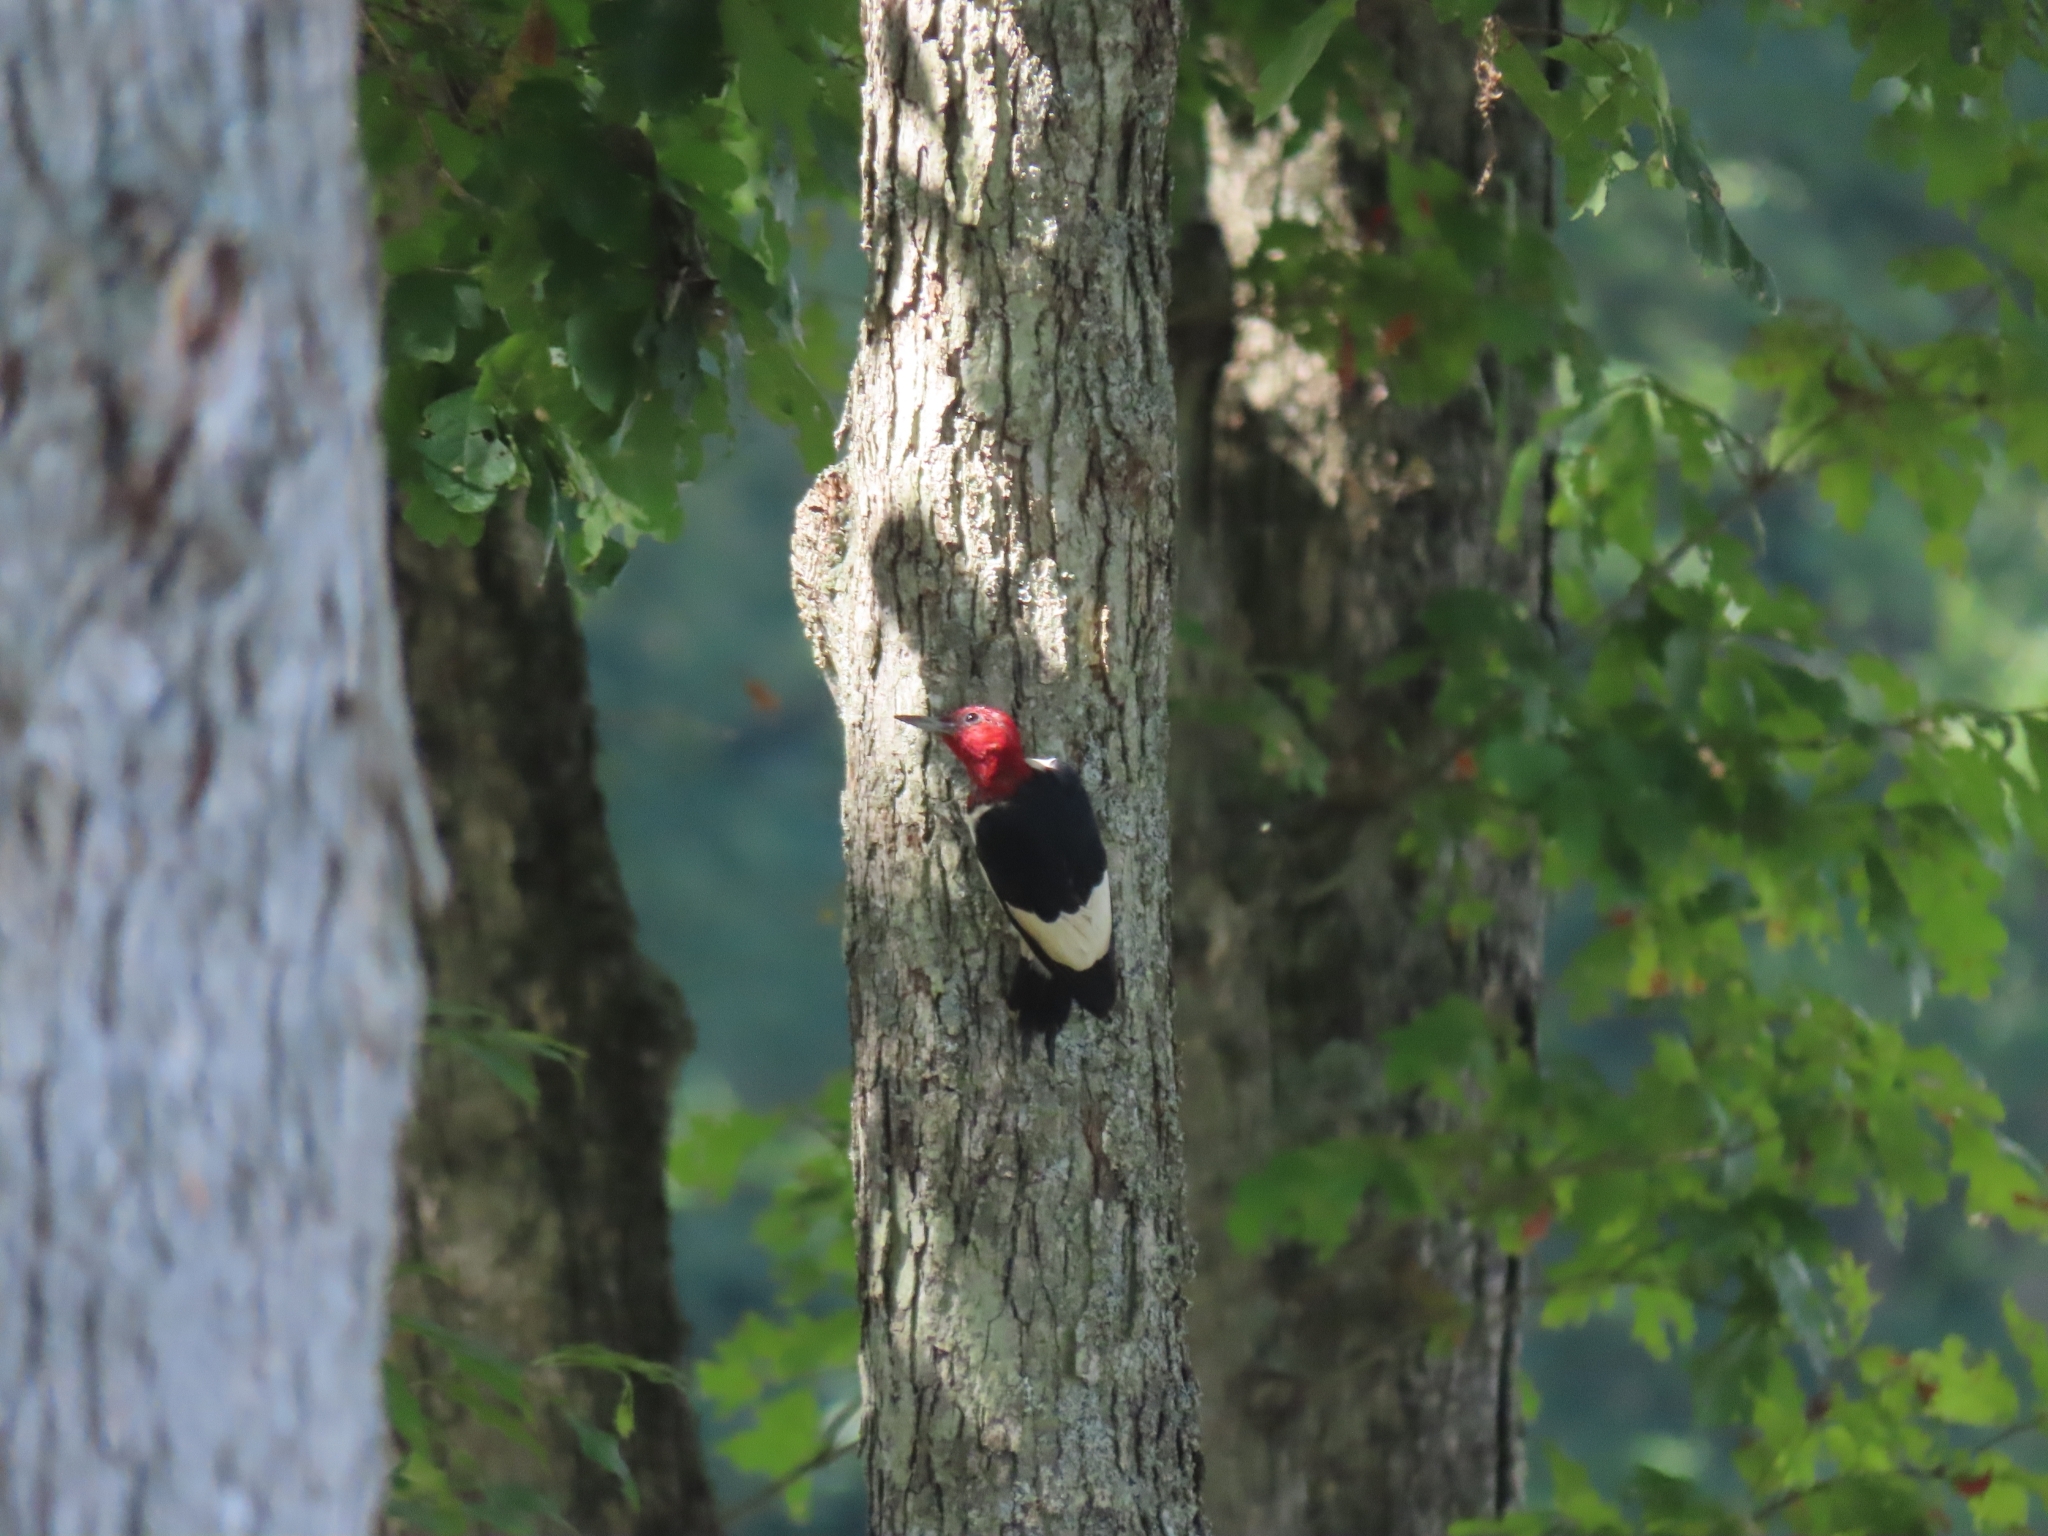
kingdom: Animalia
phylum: Chordata
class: Aves
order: Piciformes
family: Picidae
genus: Melanerpes
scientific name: Melanerpes erythrocephalus
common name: Red-headed woodpecker
